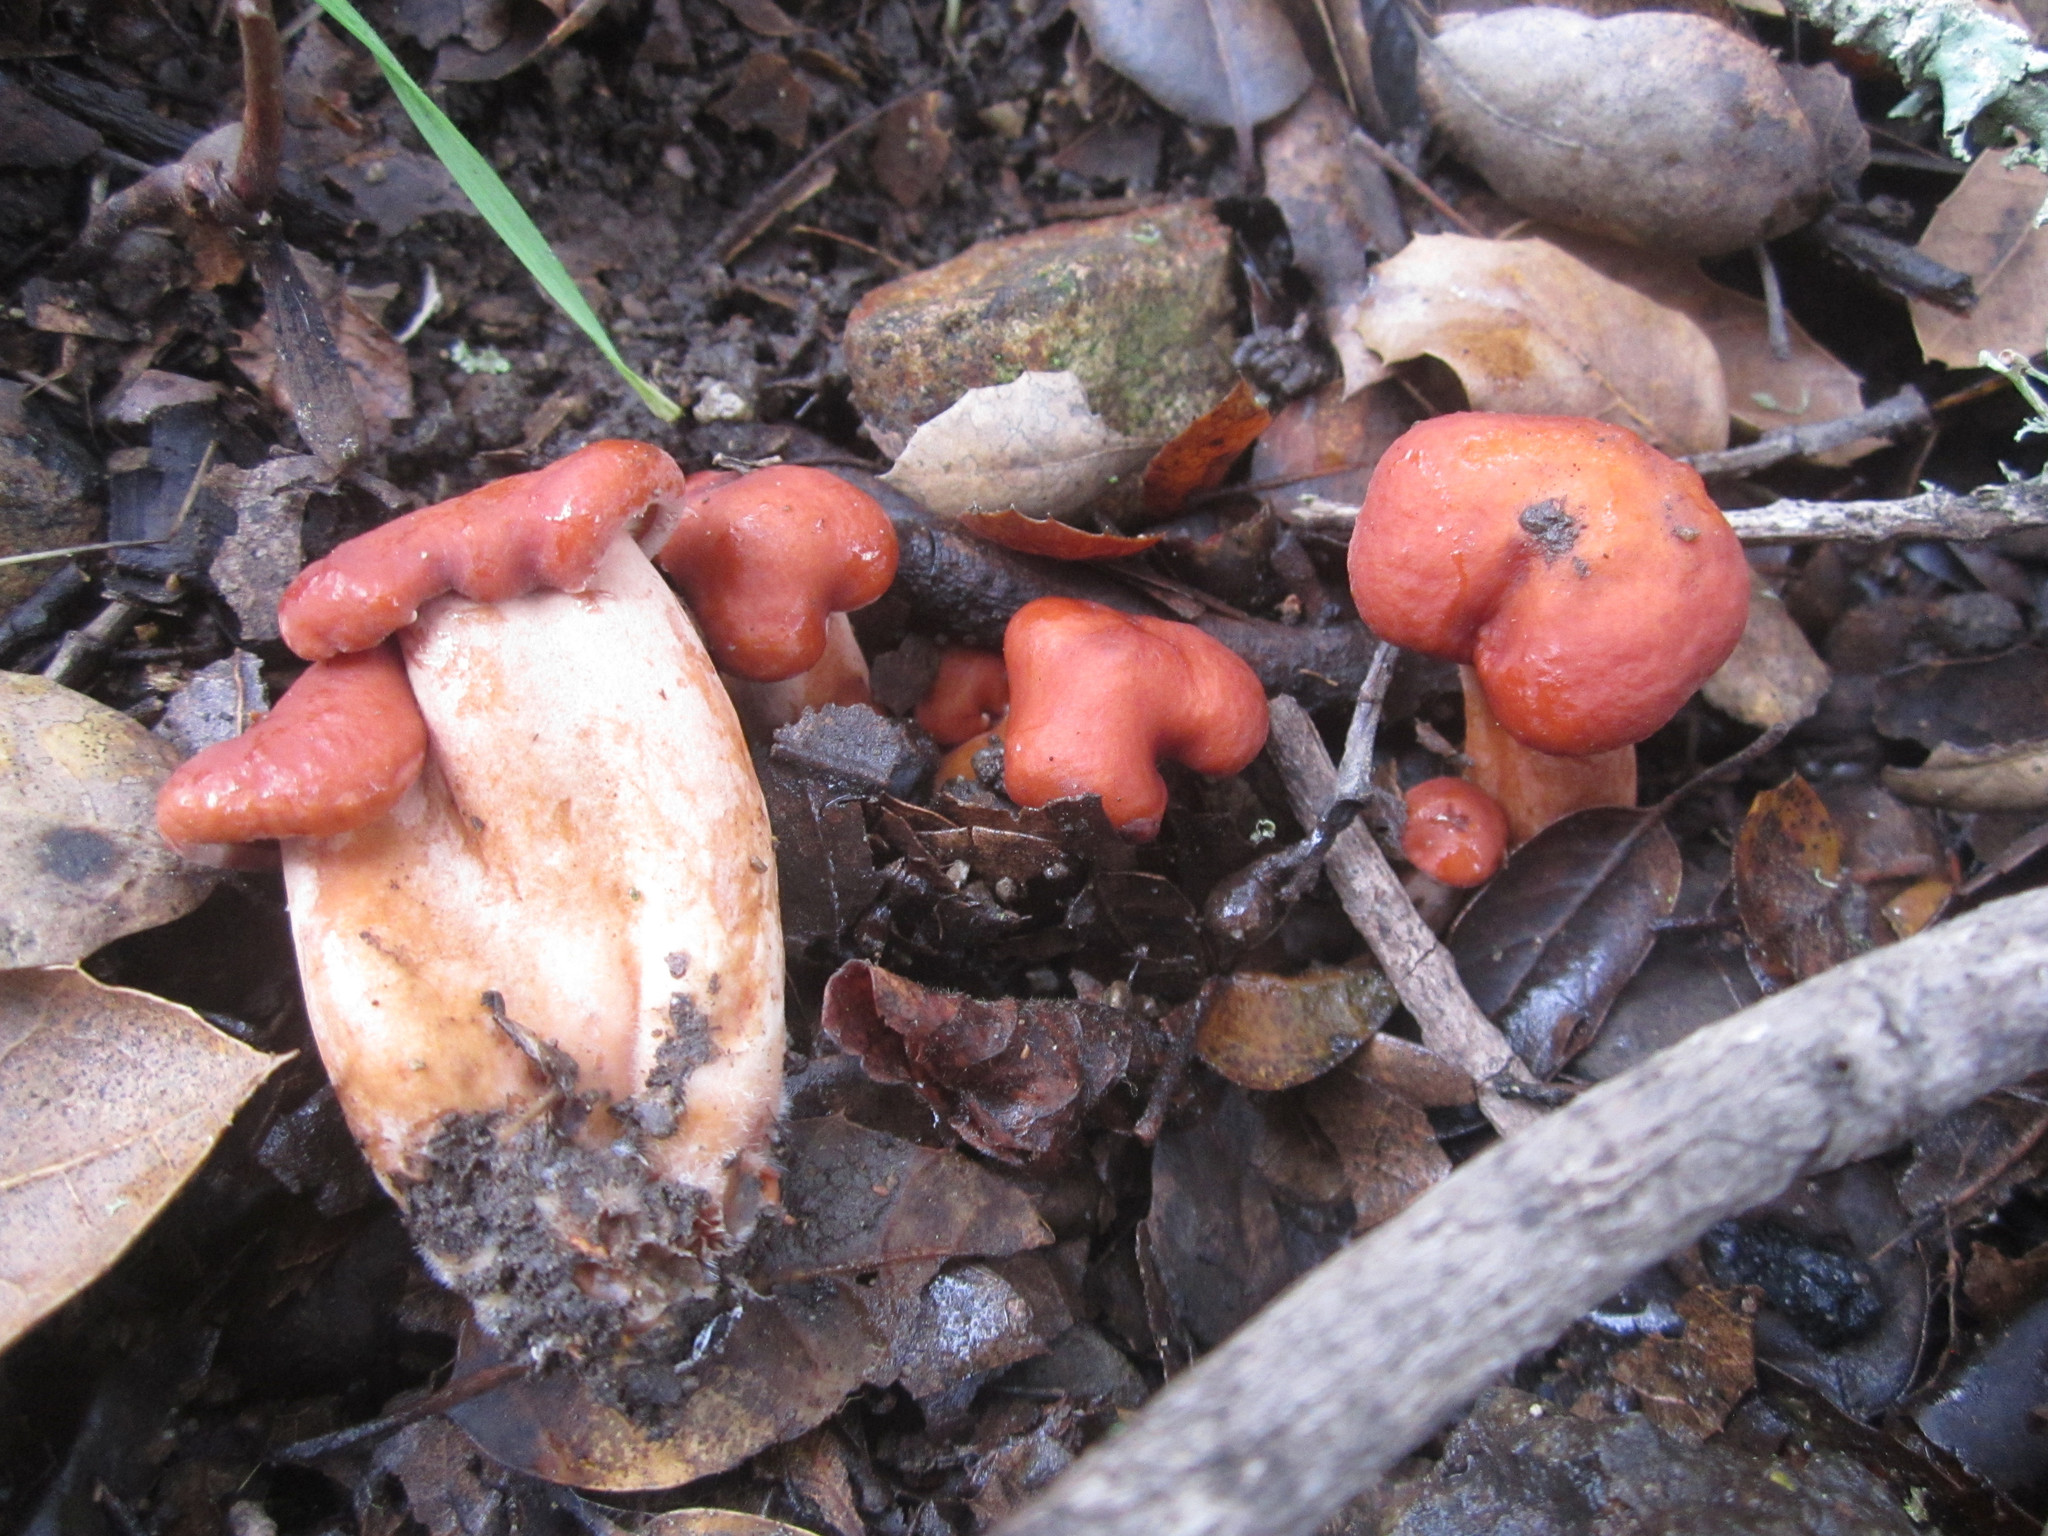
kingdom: Fungi
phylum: Basidiomycota
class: Agaricomycetes
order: Russulales
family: Russulaceae
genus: Lactarius
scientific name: Lactarius rufulus
